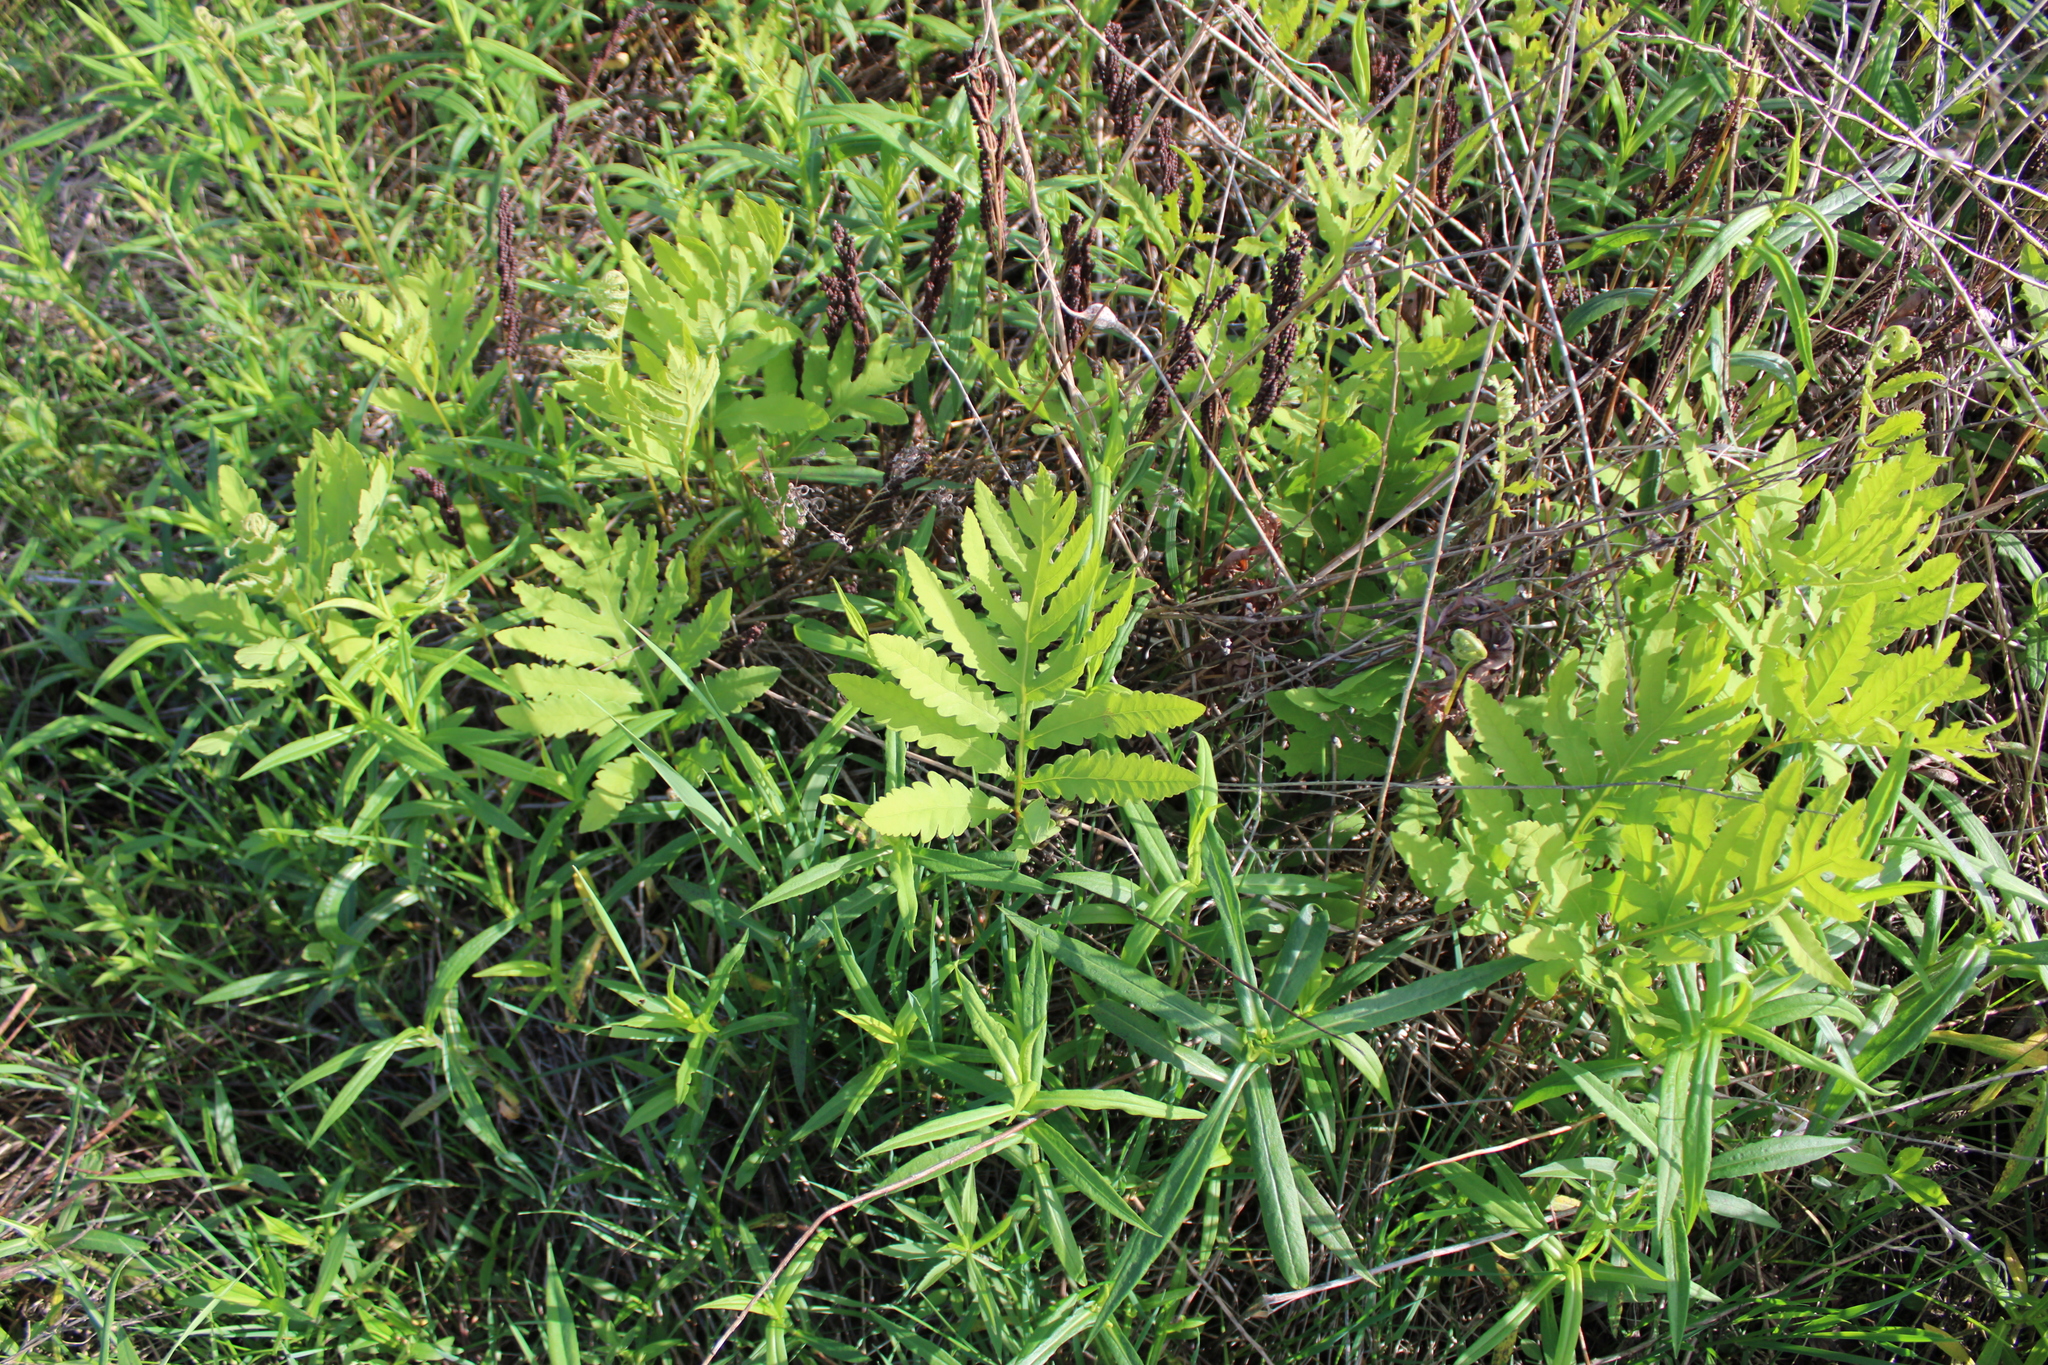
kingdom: Plantae
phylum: Tracheophyta
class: Polypodiopsida
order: Polypodiales
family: Onocleaceae
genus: Onoclea
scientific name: Onoclea sensibilis
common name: Sensitive fern
